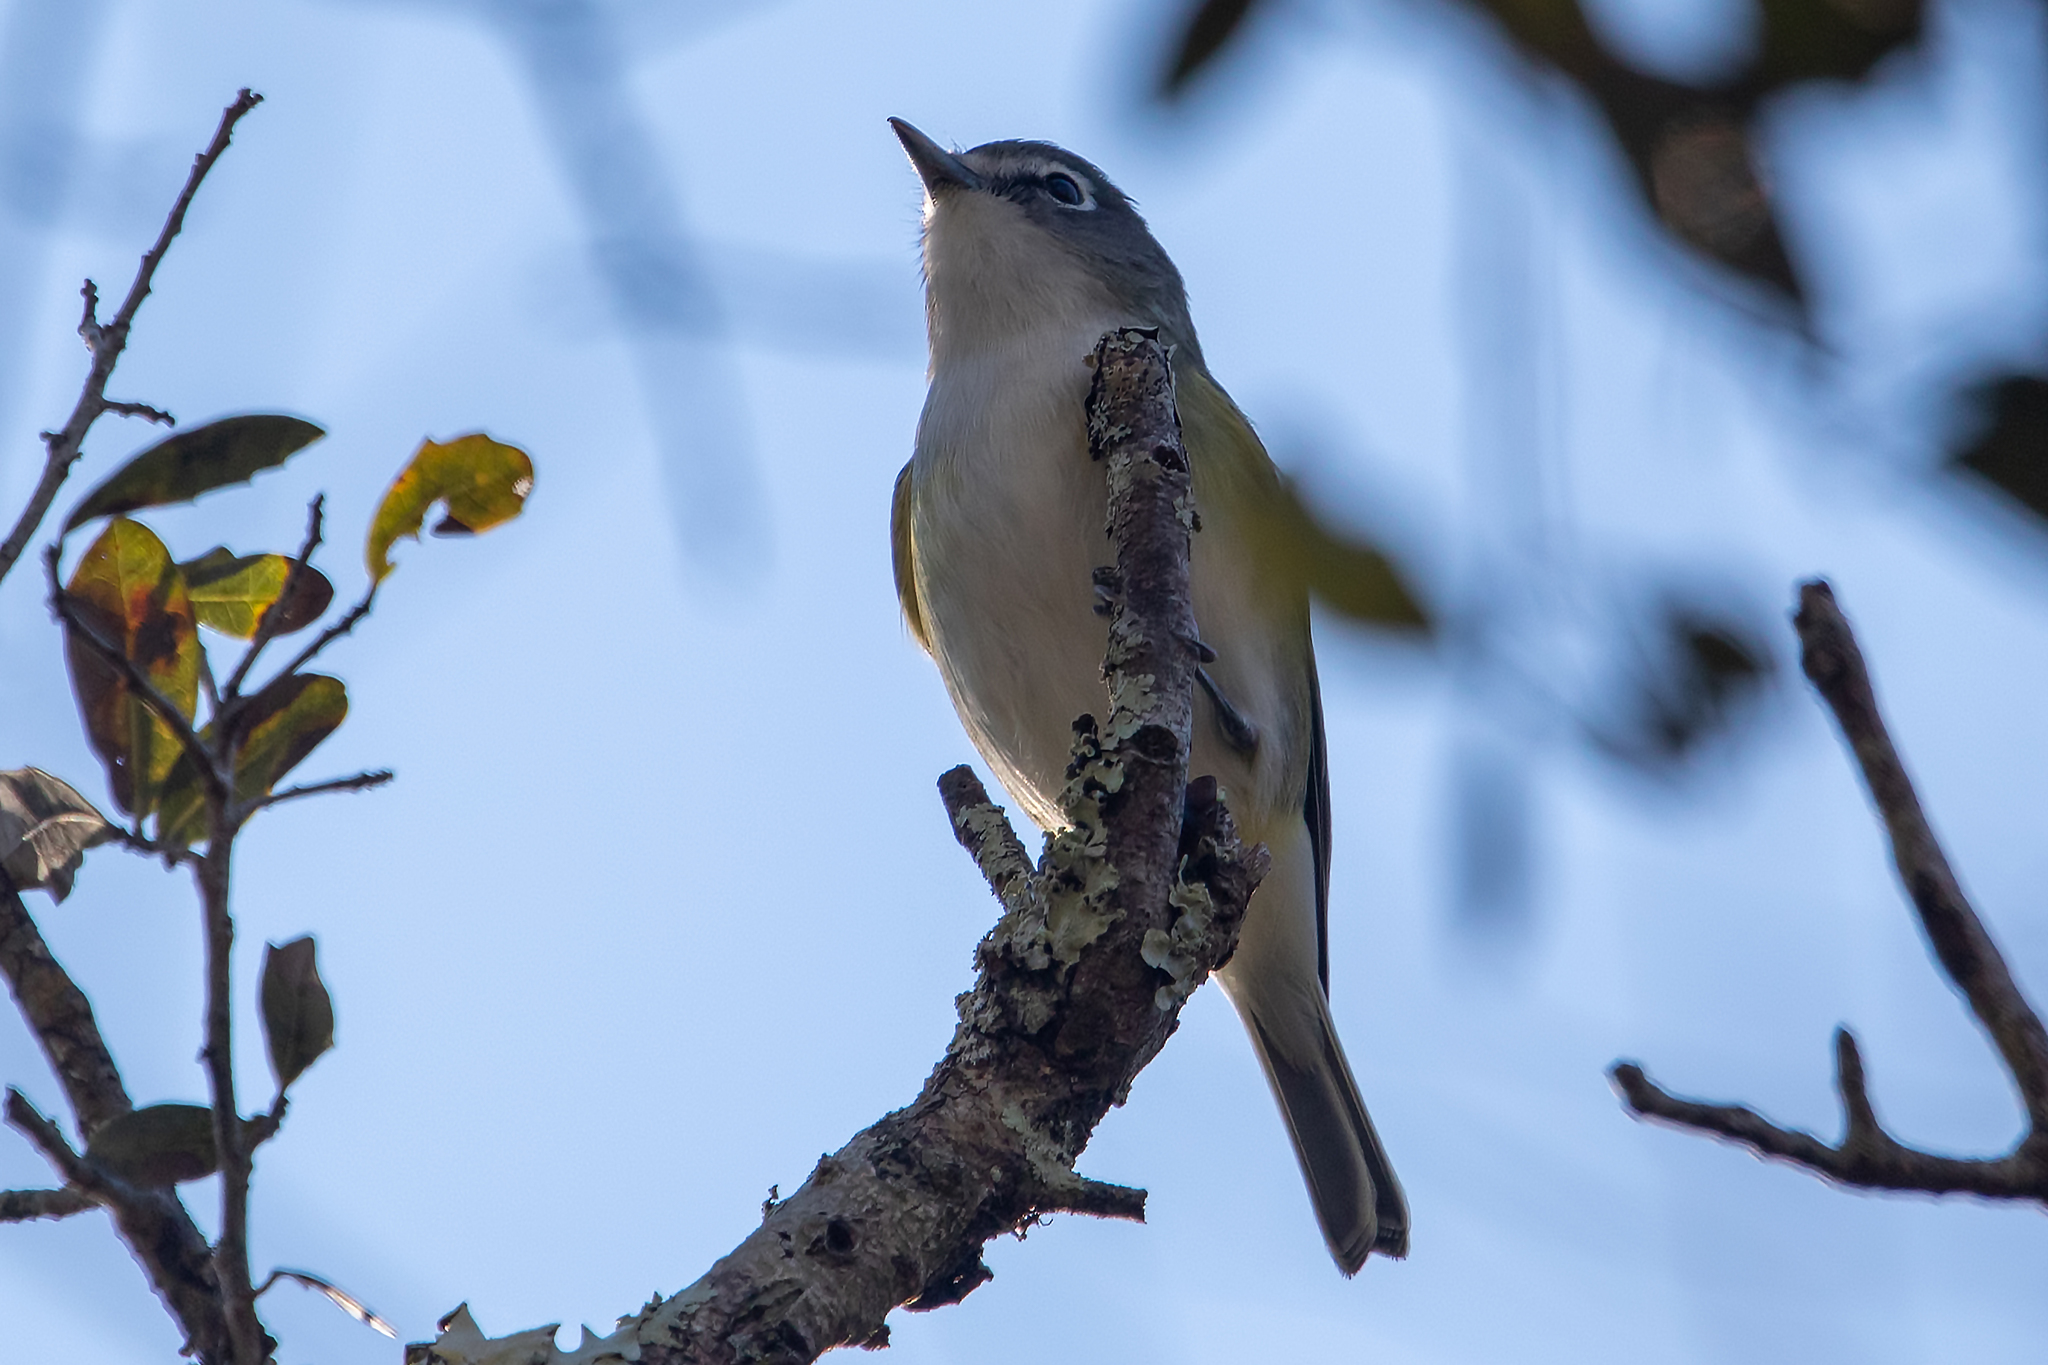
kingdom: Animalia
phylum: Chordata
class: Aves
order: Passeriformes
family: Vireonidae
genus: Vireo
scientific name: Vireo solitarius
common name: Blue-headed vireo
